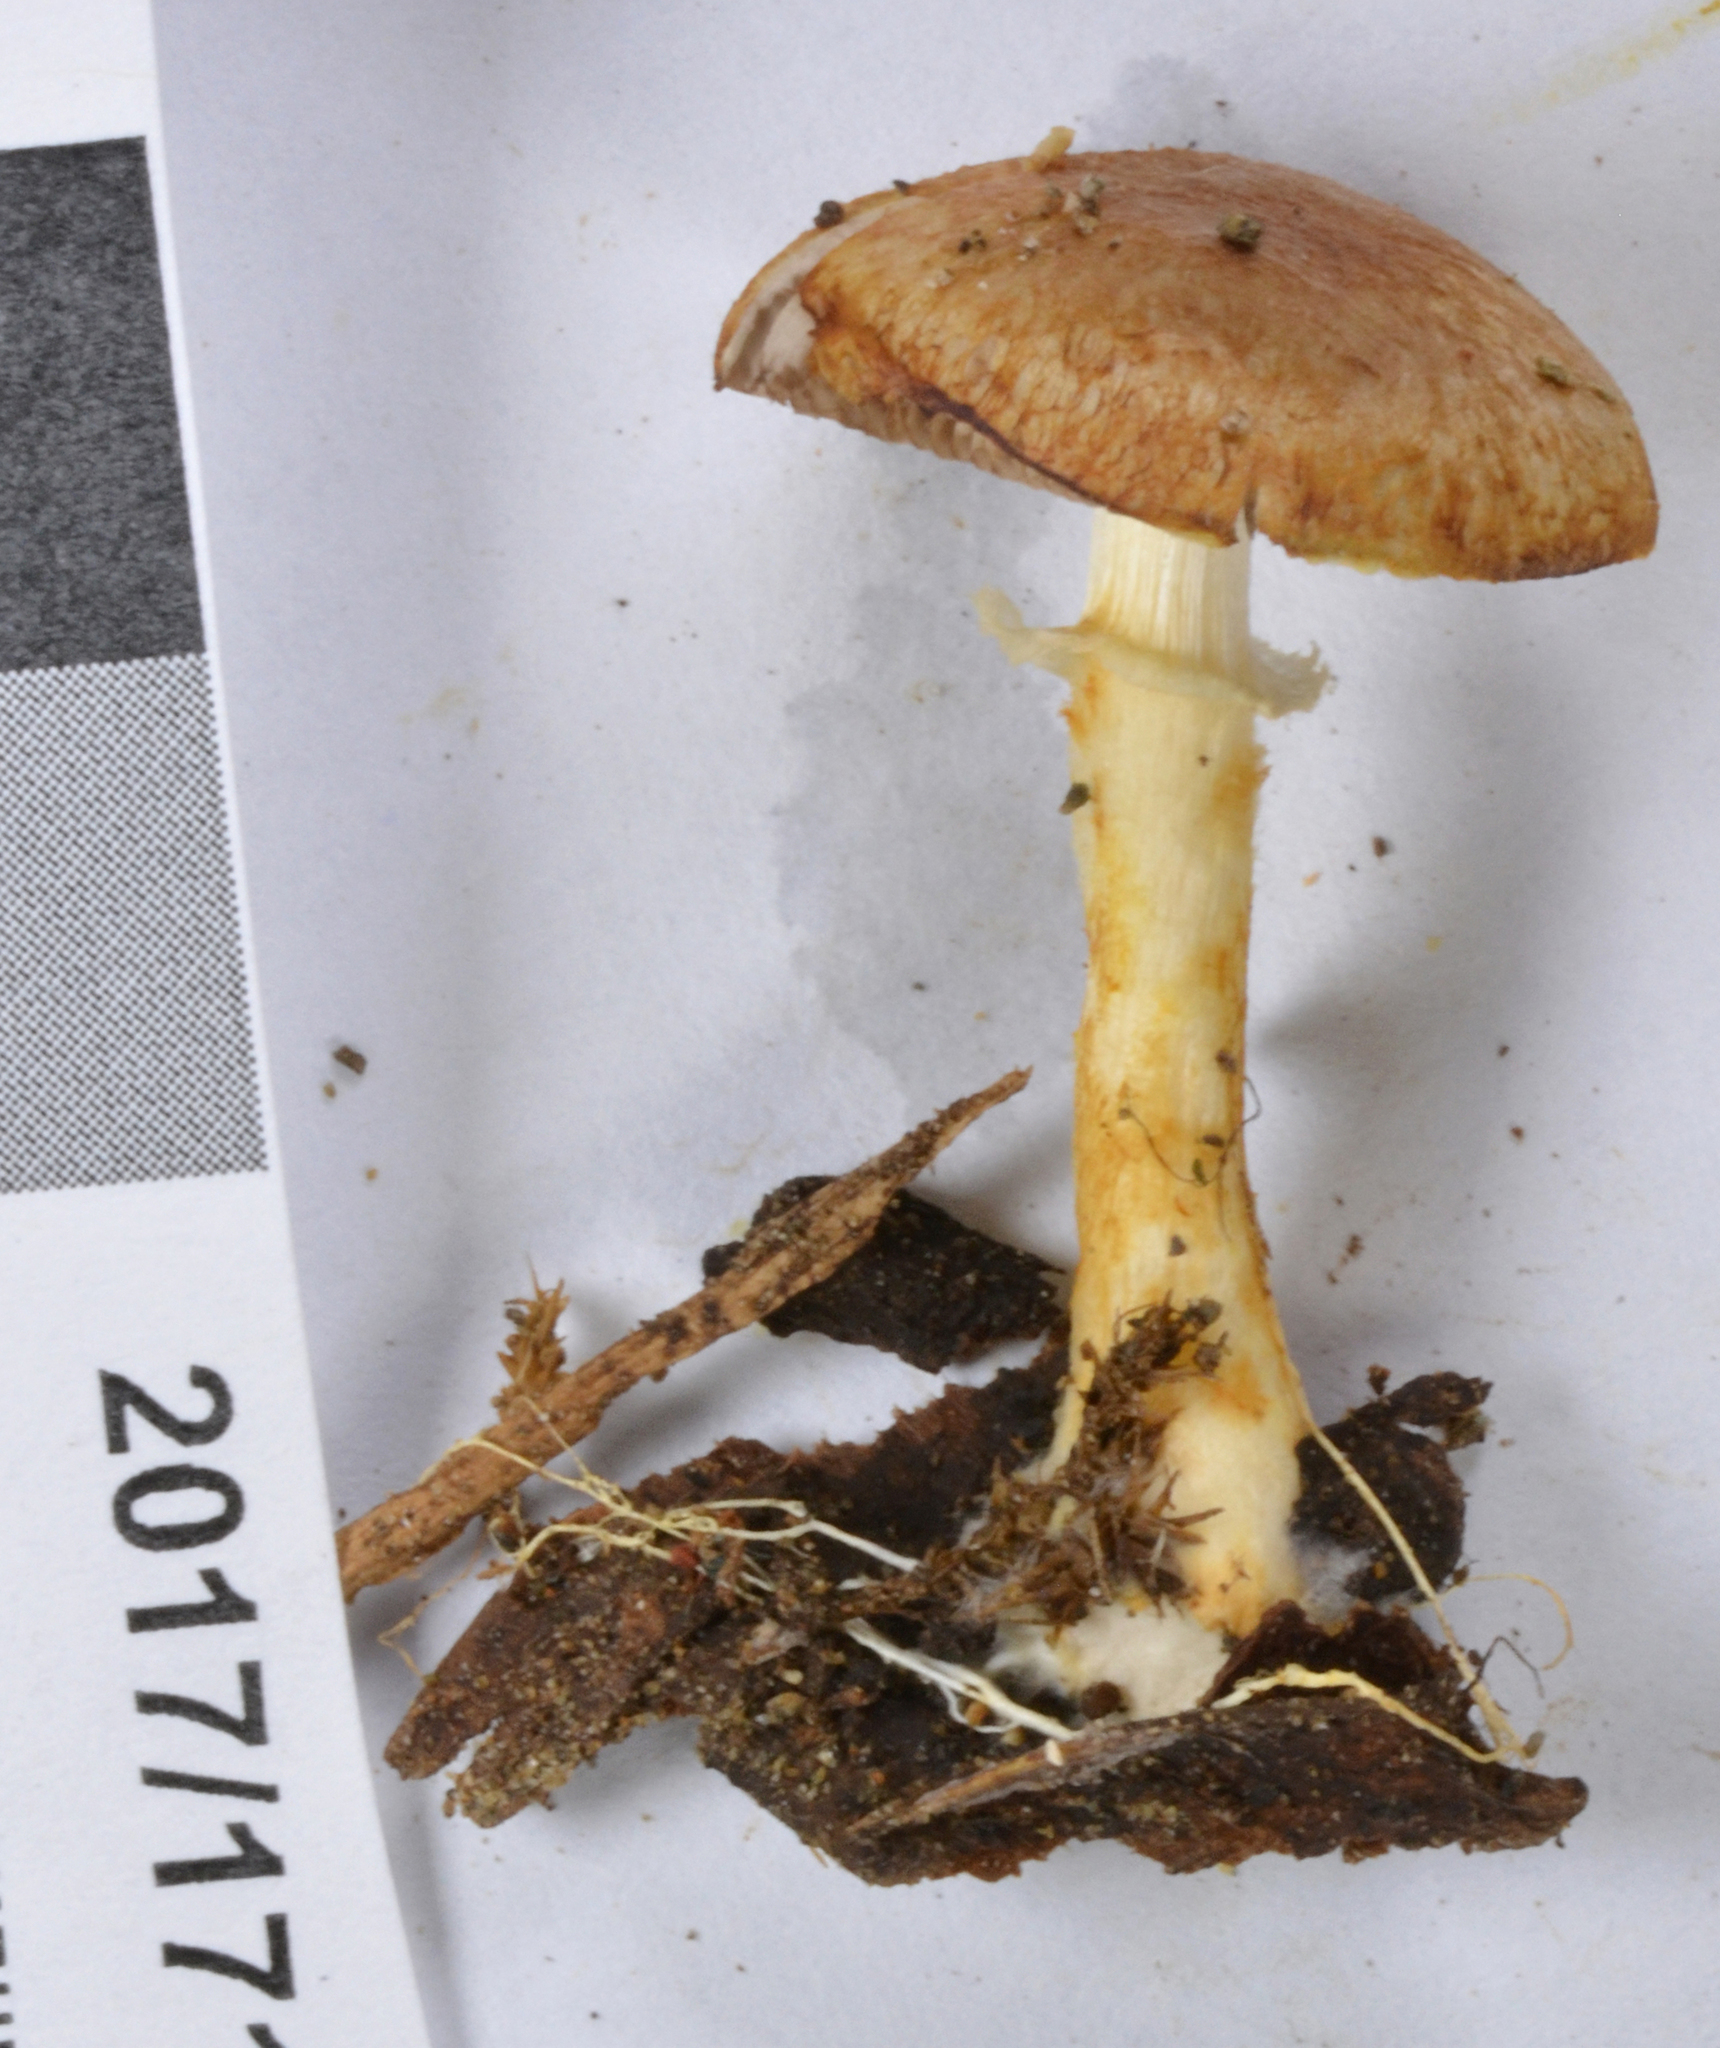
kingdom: Fungi
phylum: Basidiomycota
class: Agaricomycetes
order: Agaricales
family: Agaricaceae
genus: Agaricus
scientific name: Agaricus
